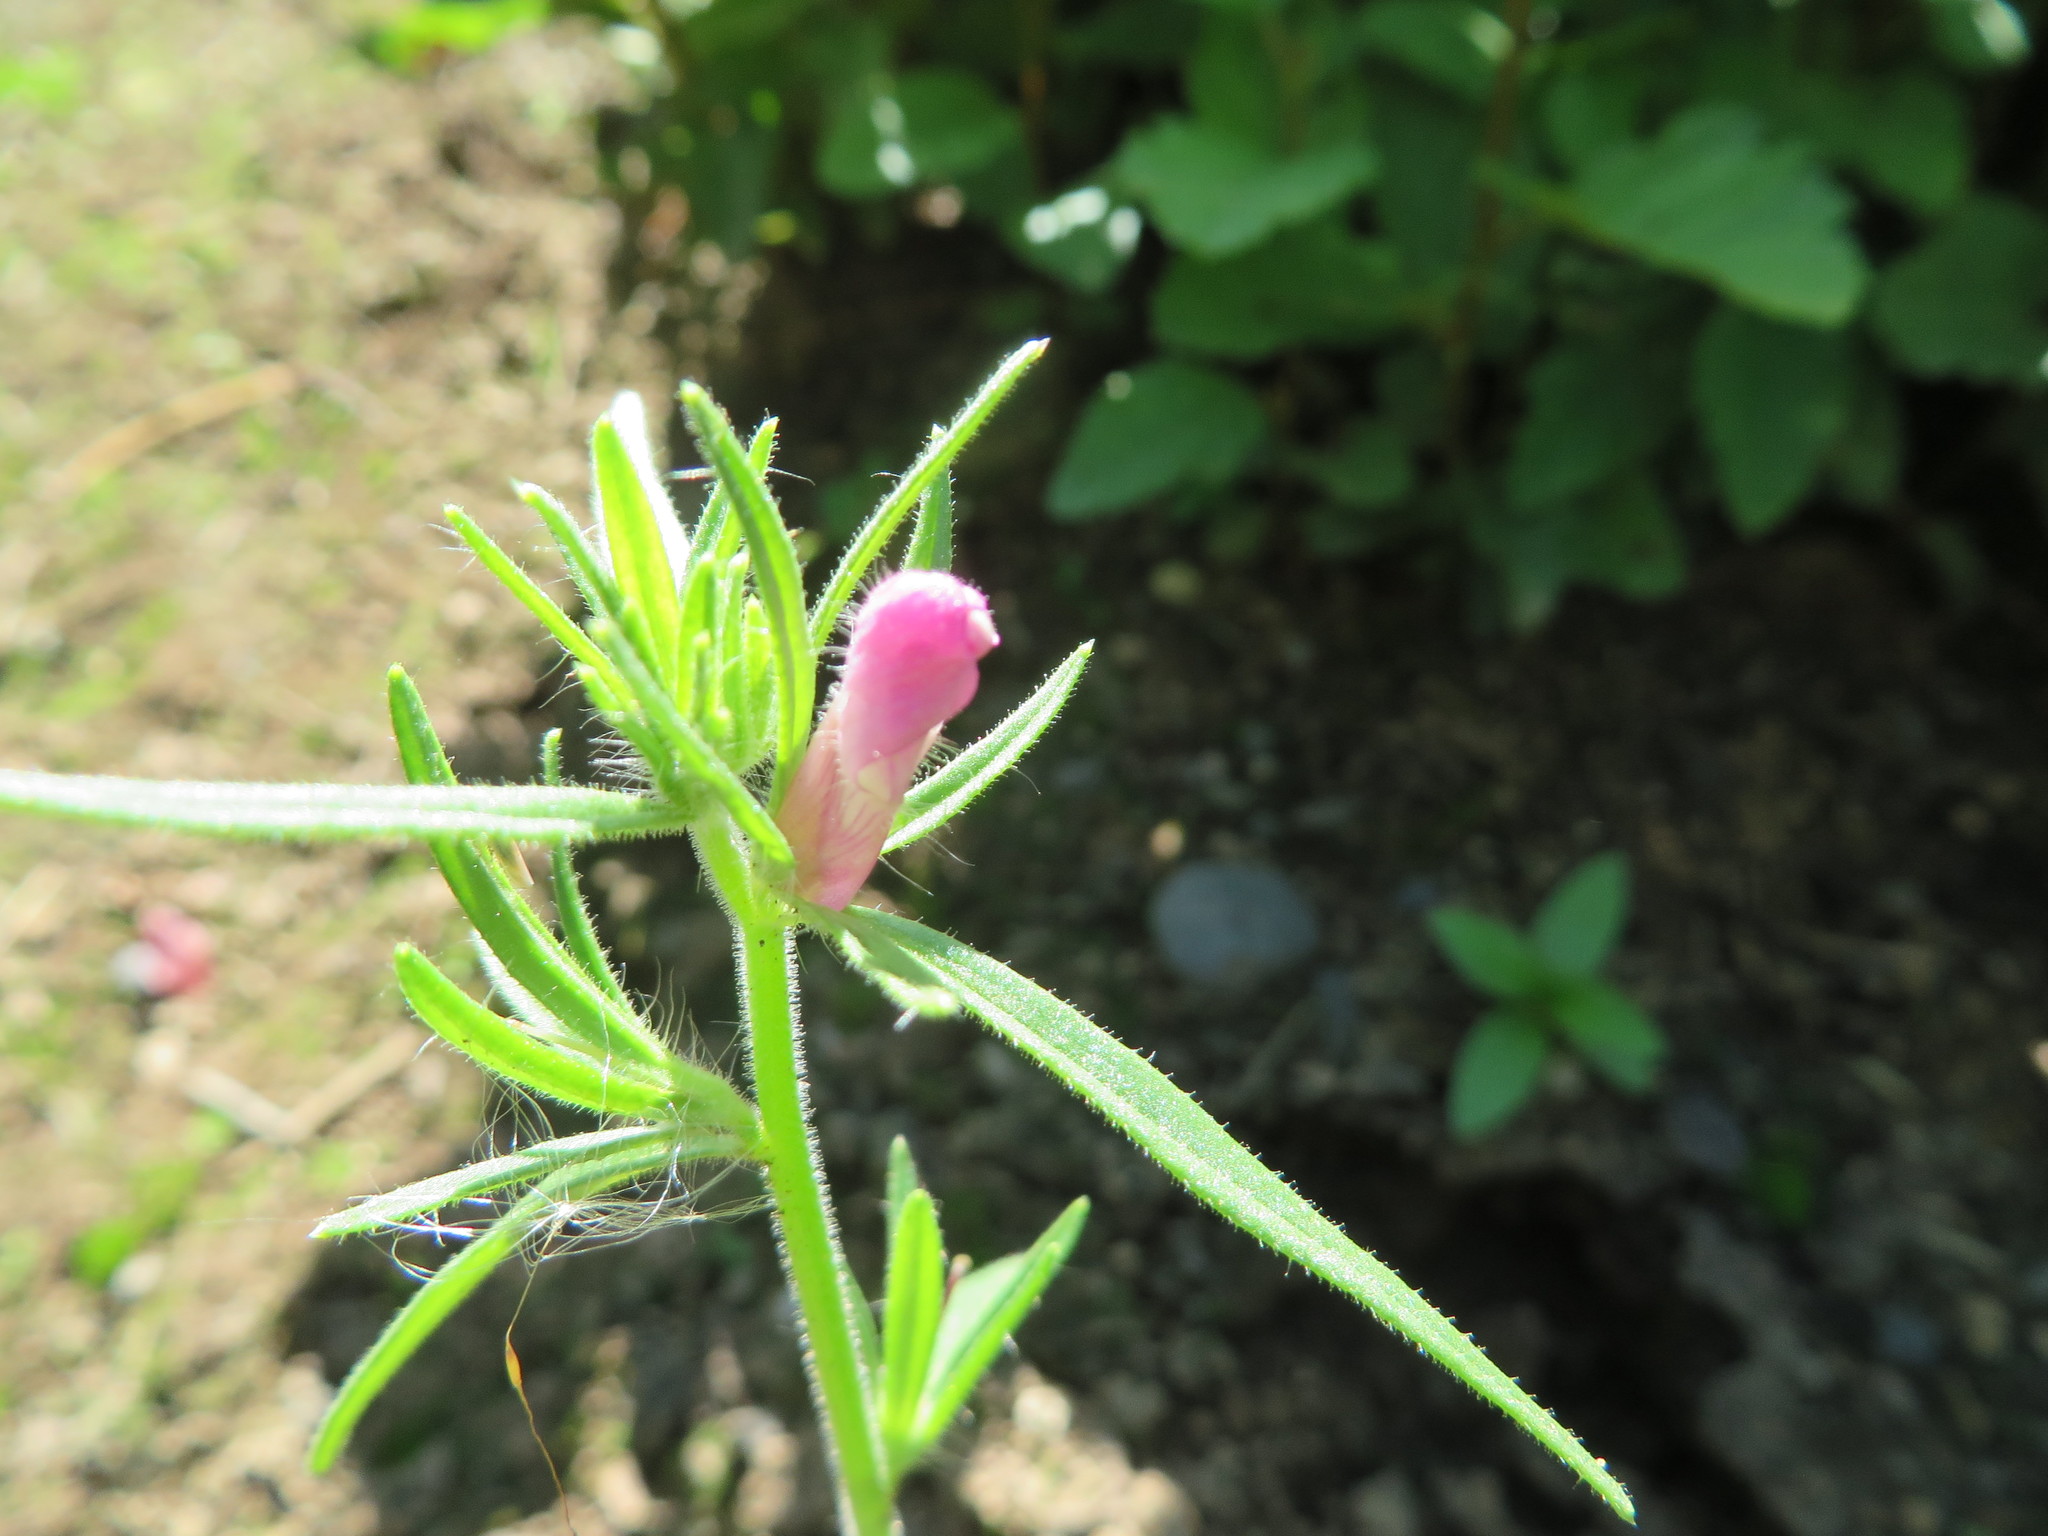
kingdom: Plantae
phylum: Tracheophyta
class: Magnoliopsida
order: Lamiales
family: Plantaginaceae
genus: Misopates
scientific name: Misopates orontium
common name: Weasel's-snout
